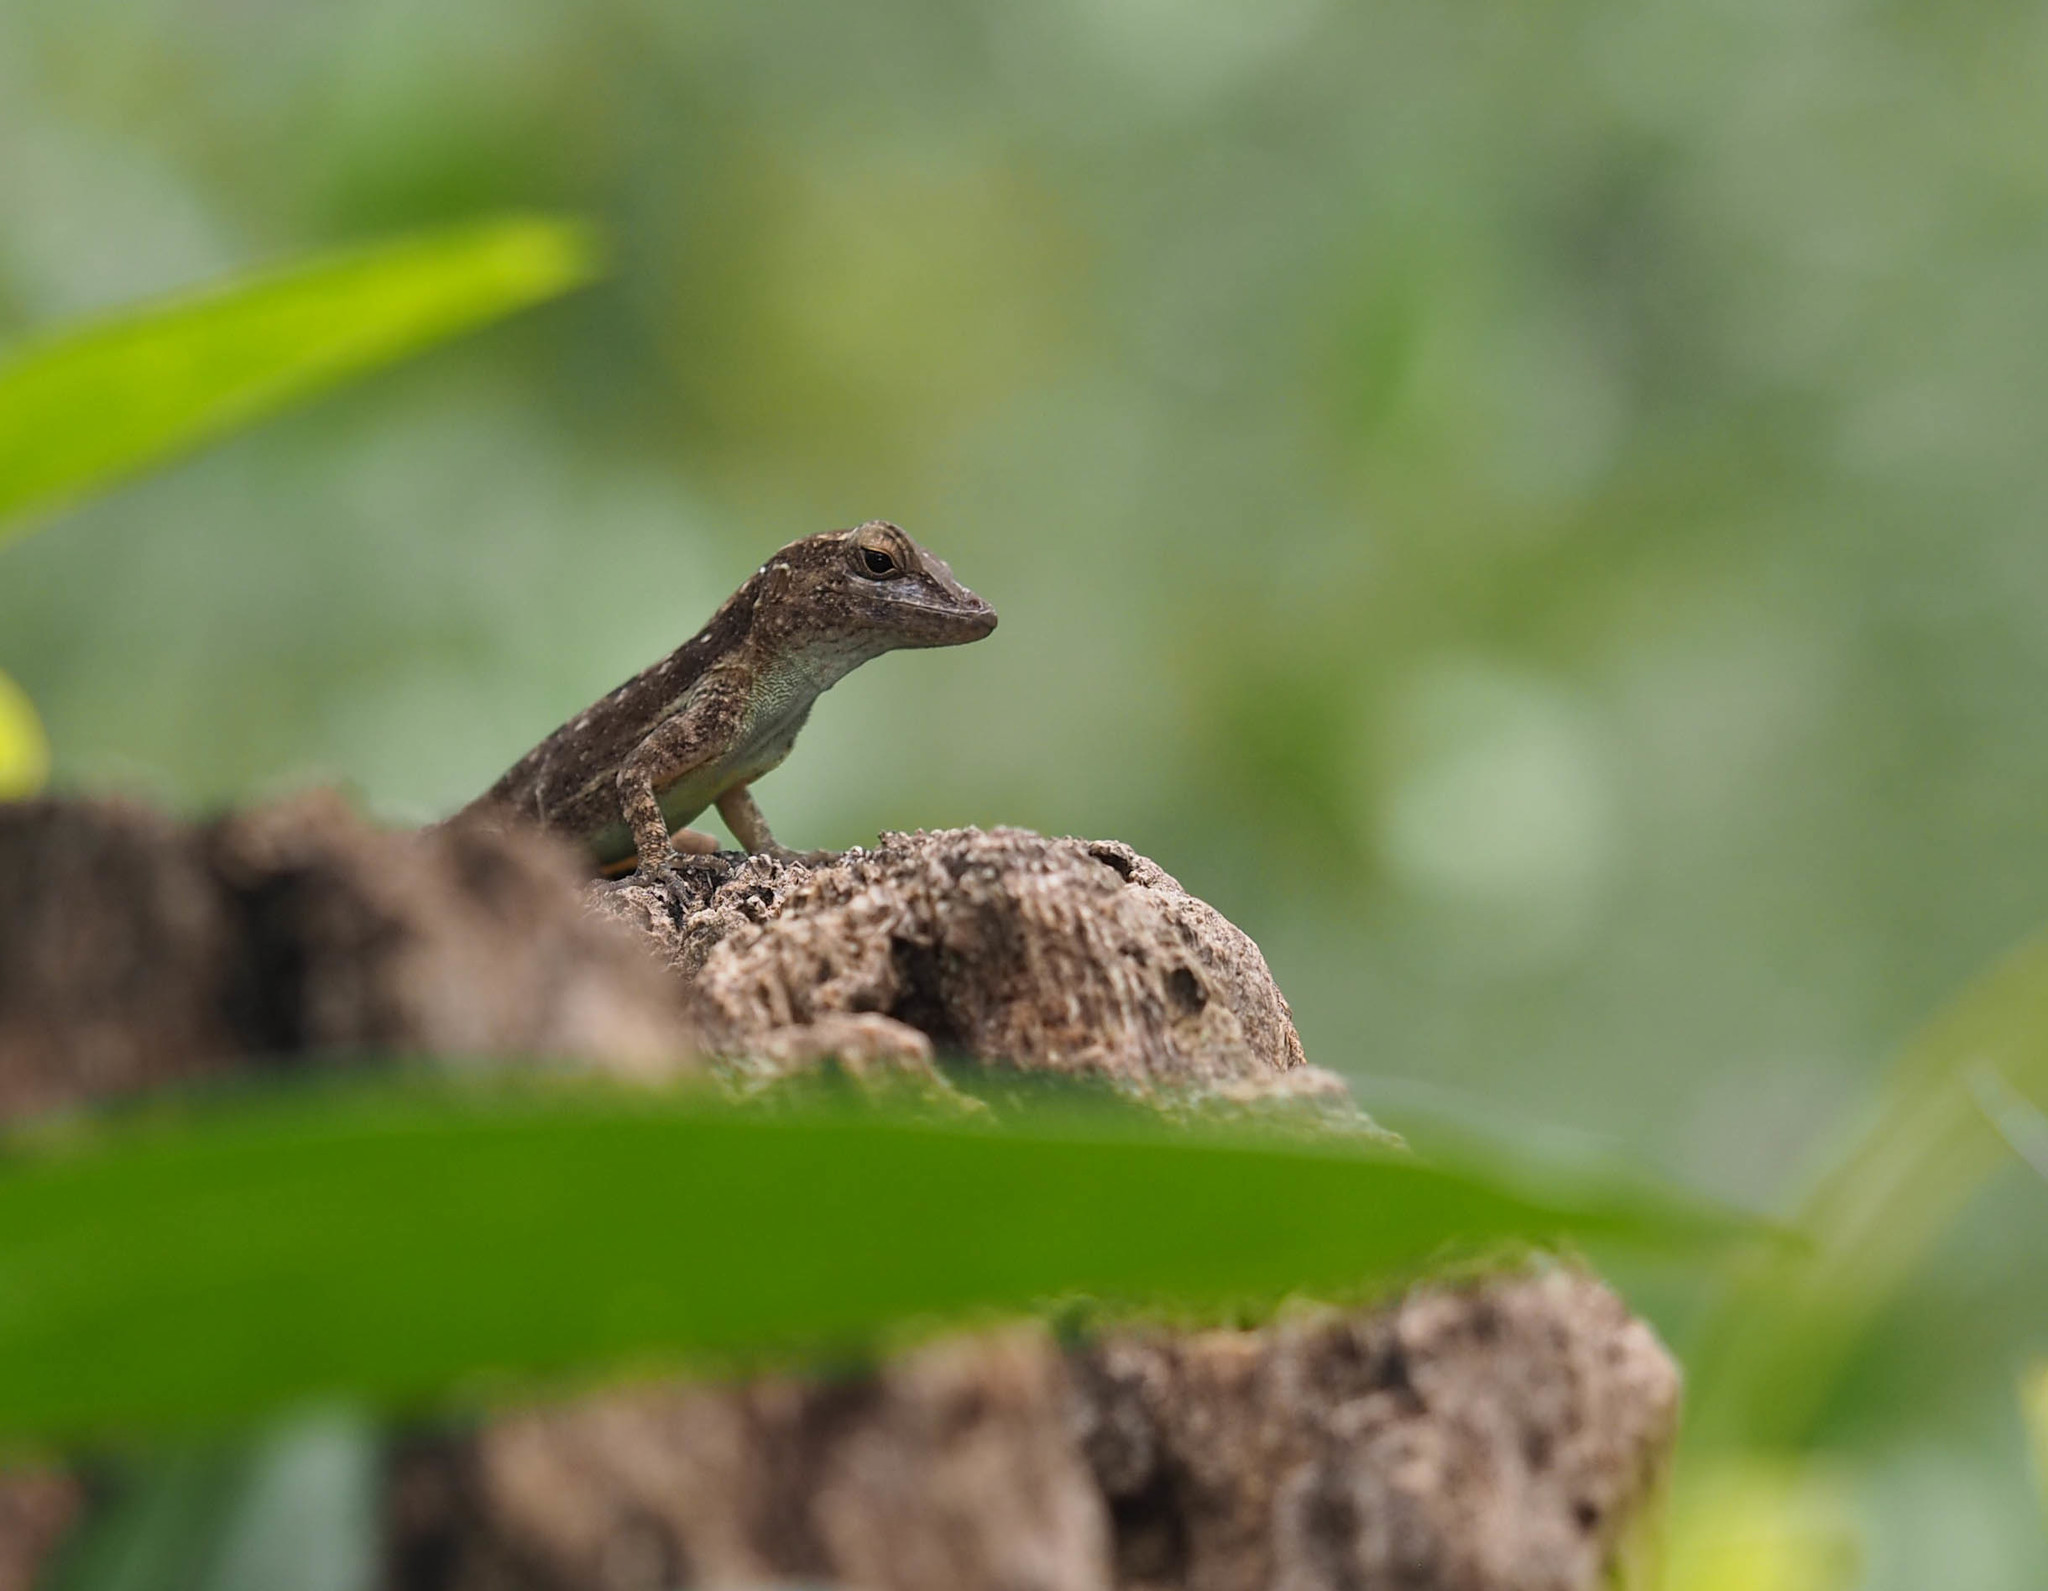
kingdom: Animalia
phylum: Chordata
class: Squamata
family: Dactyloidae
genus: Anolis
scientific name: Anolis cristatellus
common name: Crested anole
